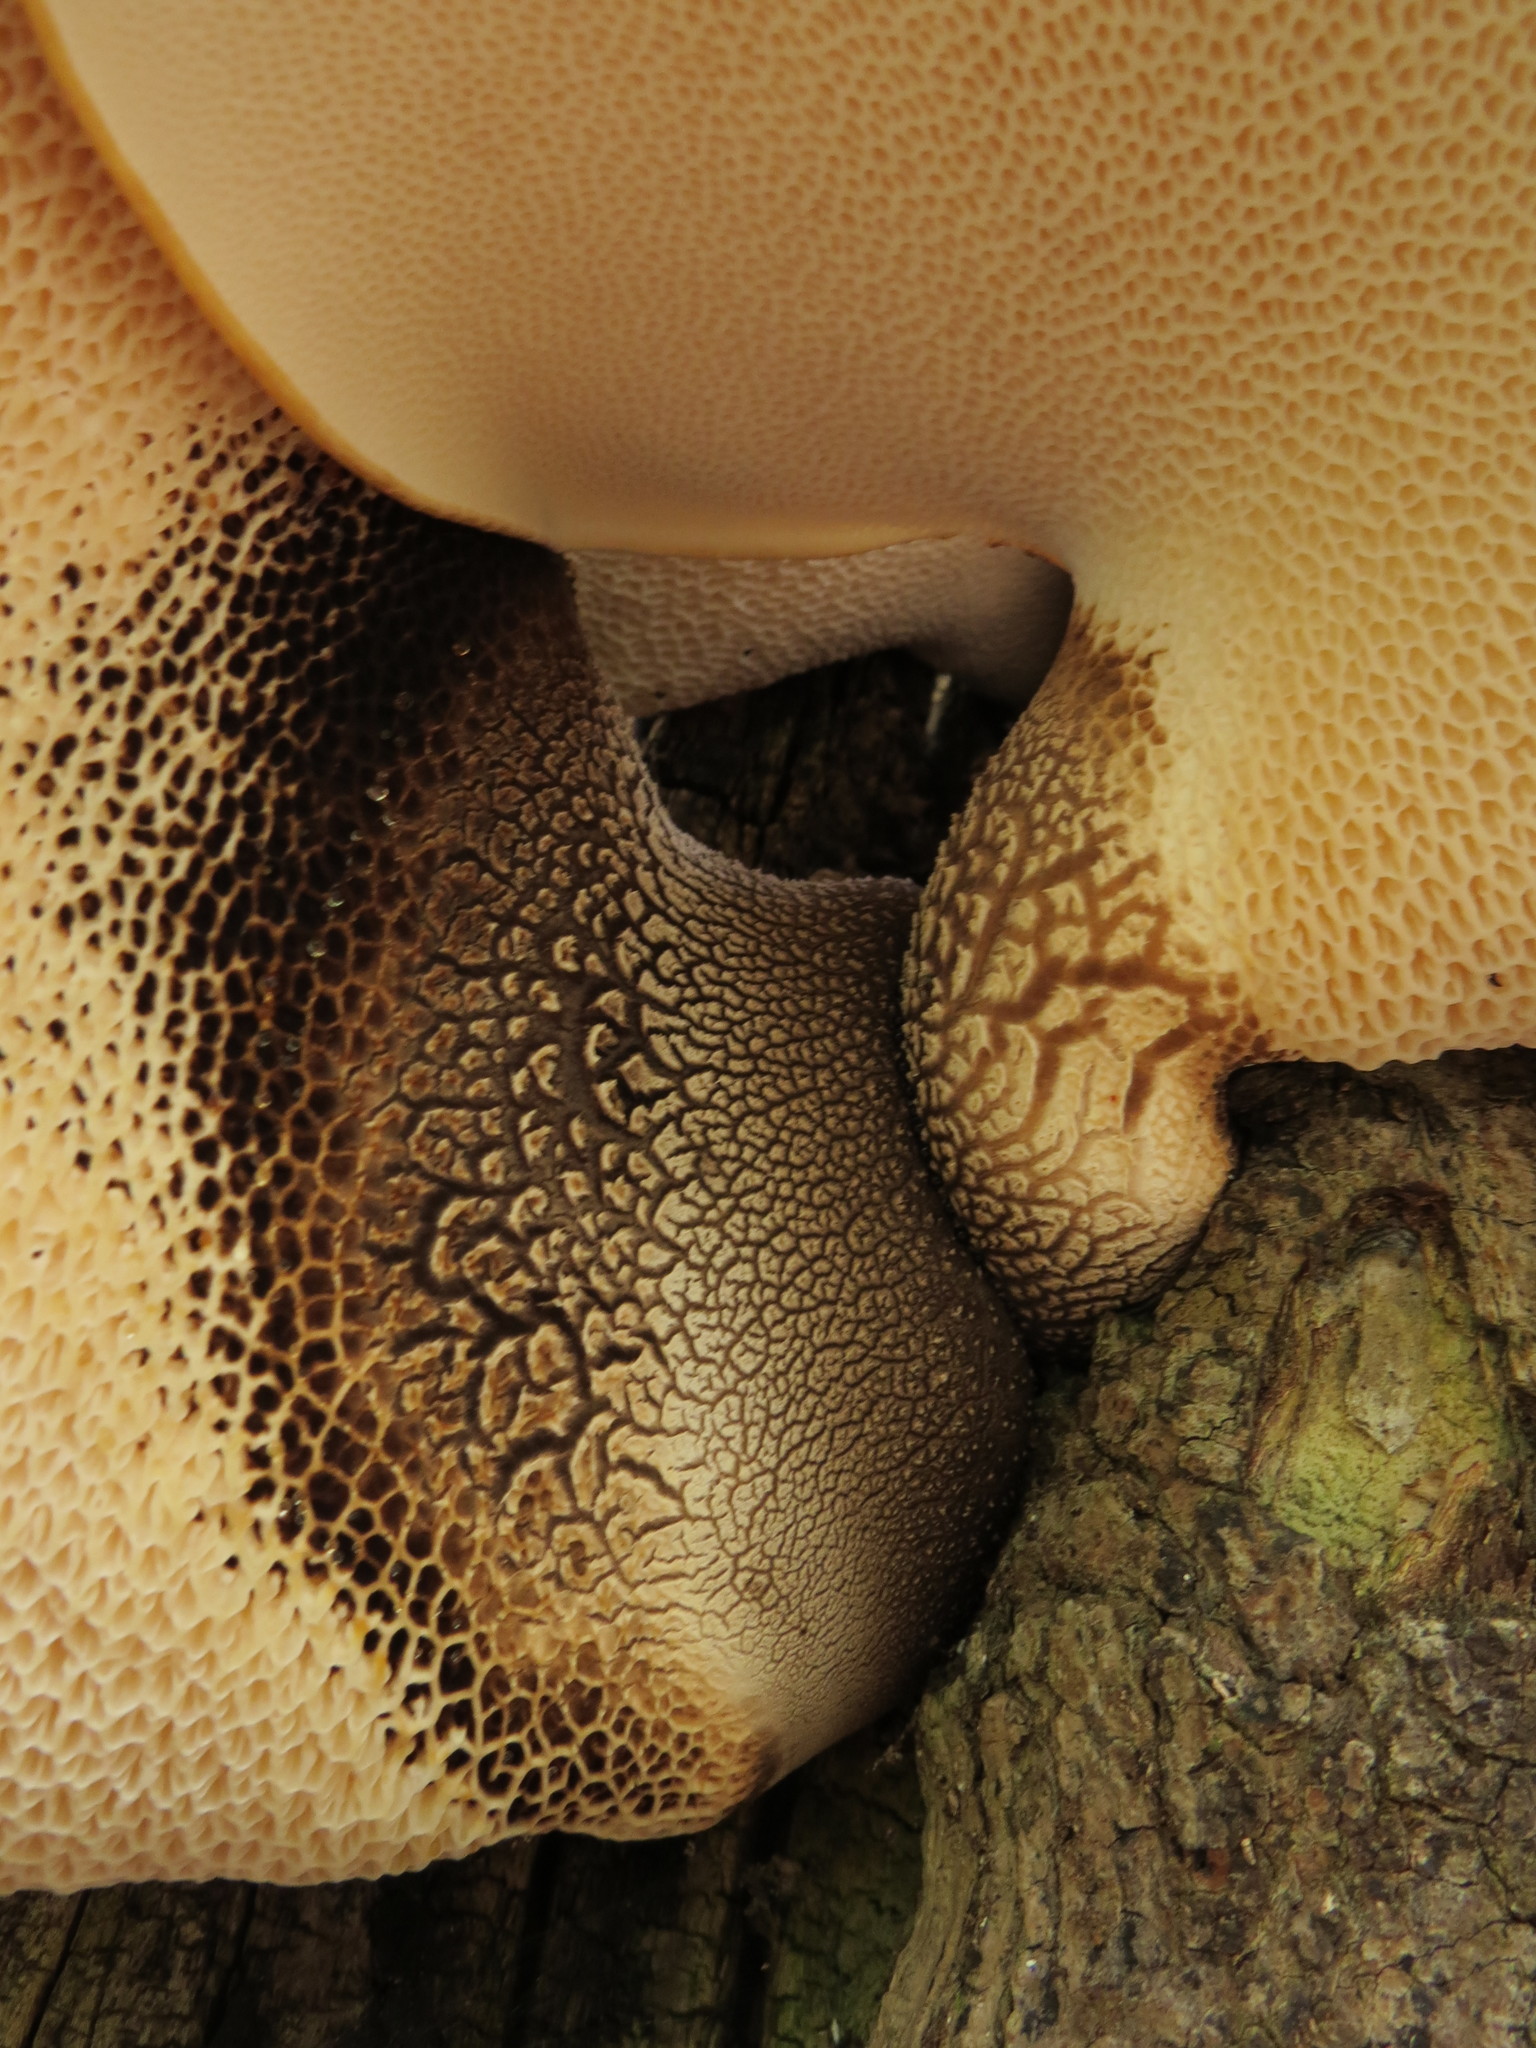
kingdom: Fungi
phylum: Basidiomycota
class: Agaricomycetes
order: Polyporales
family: Polyporaceae
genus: Cerioporus
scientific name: Cerioporus squamosus
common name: Dryad's saddle
